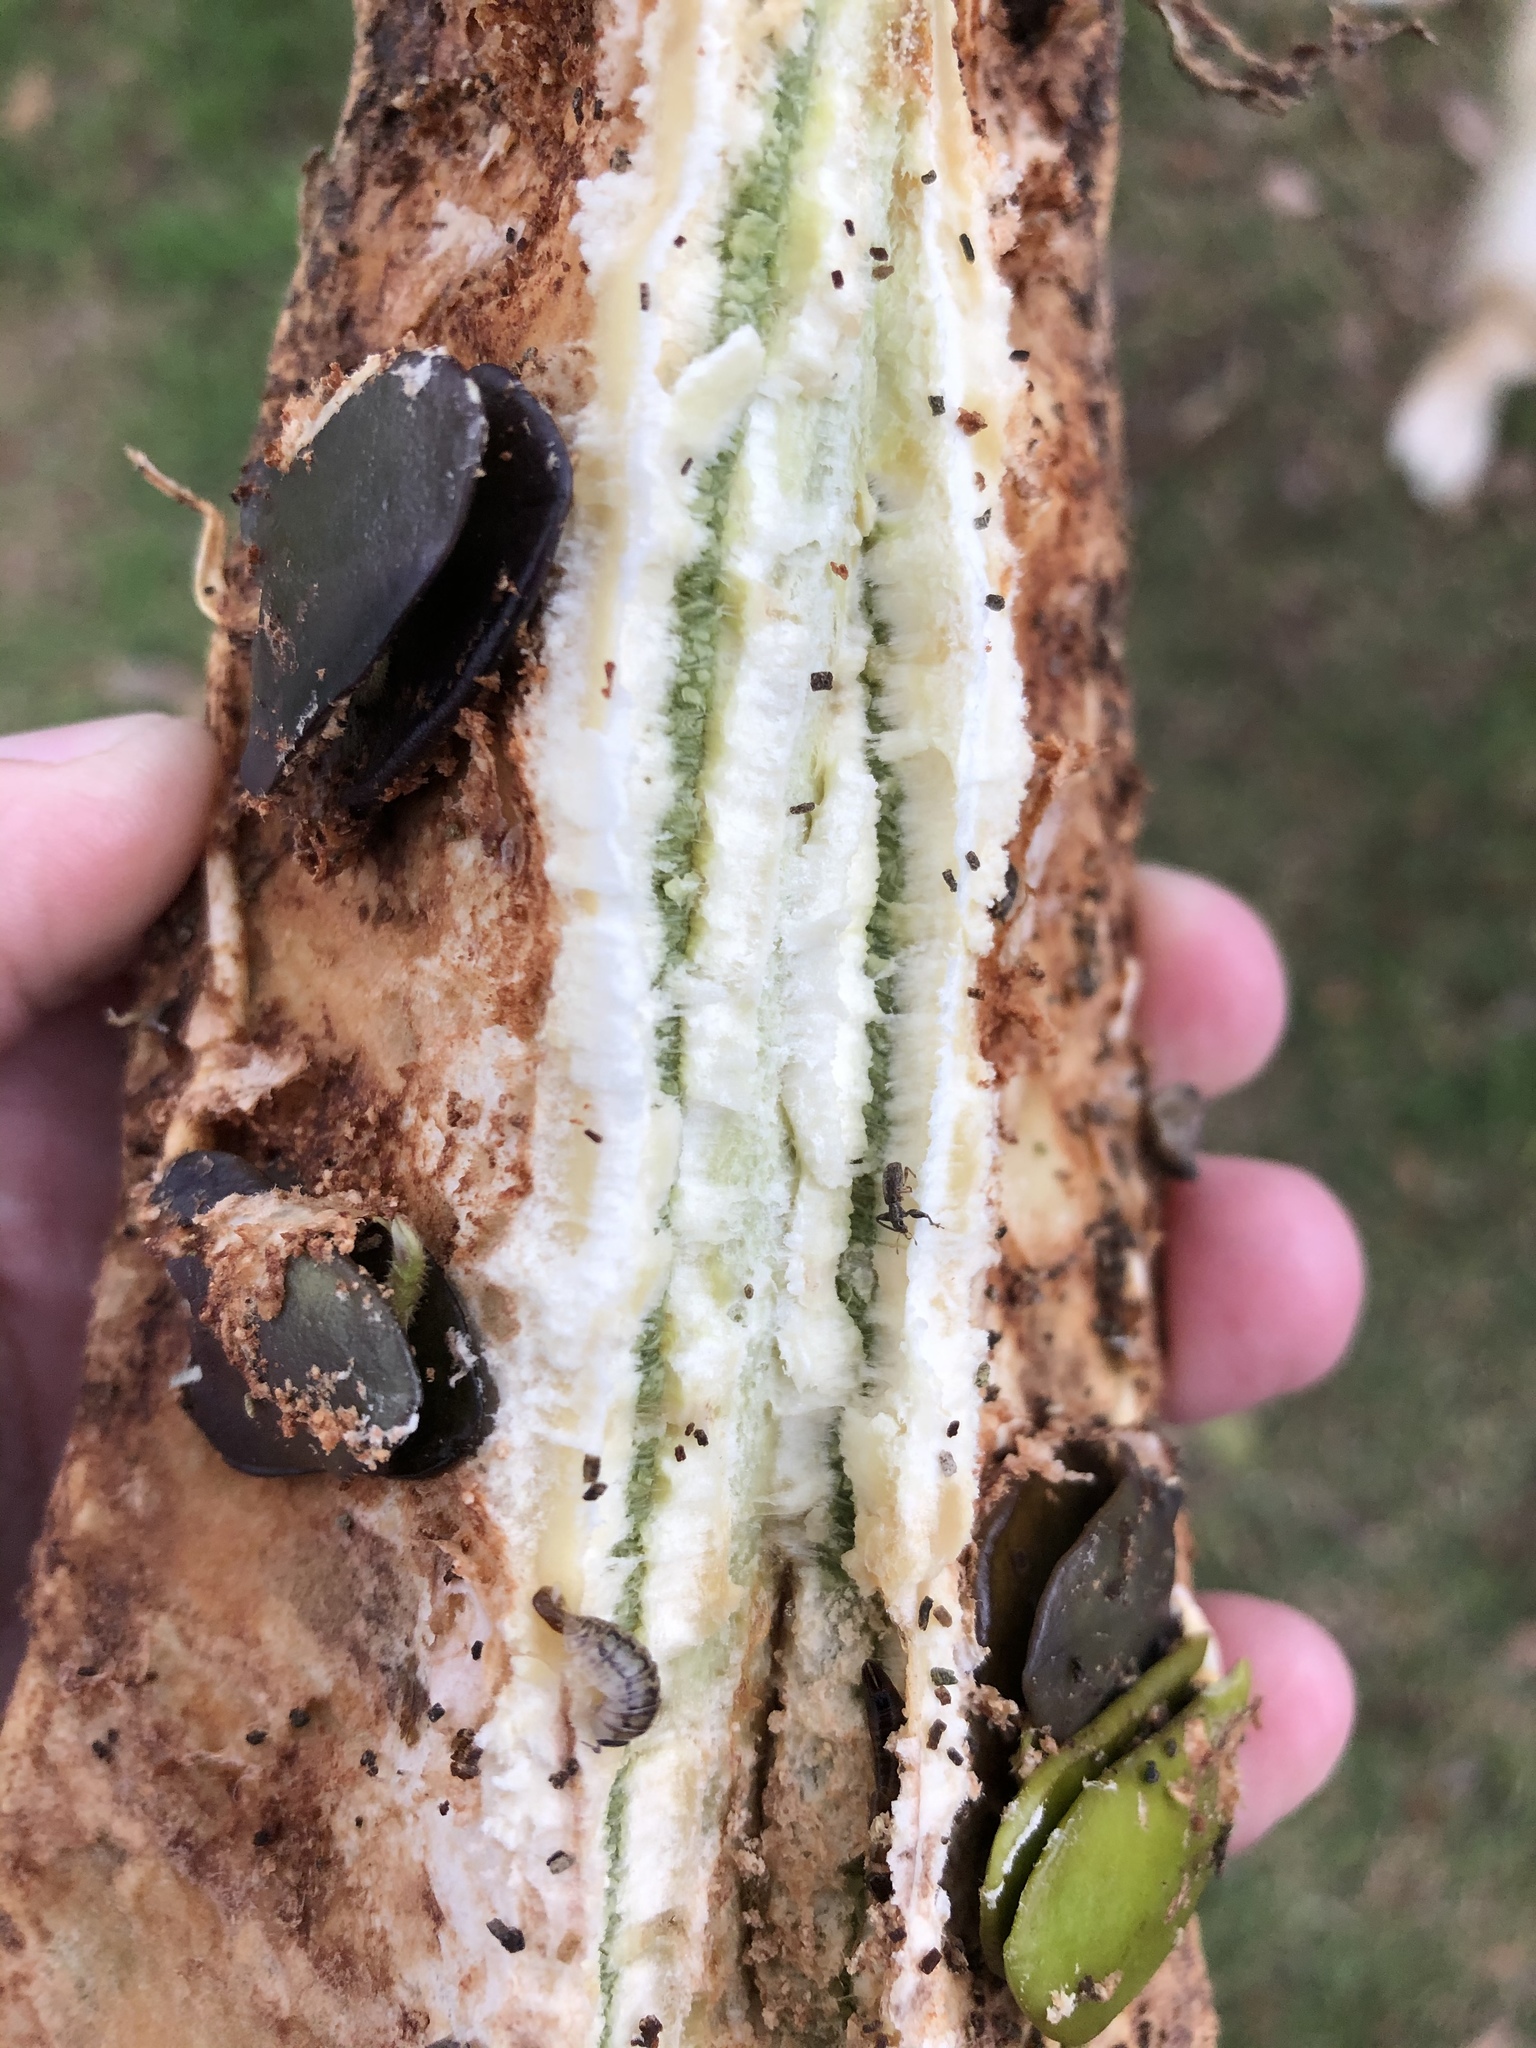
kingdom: Animalia
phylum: Arthropoda
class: Insecta
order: Coleoptera
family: Curculionidae
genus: Pandeleteius
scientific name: Pandeleteius variegatus
